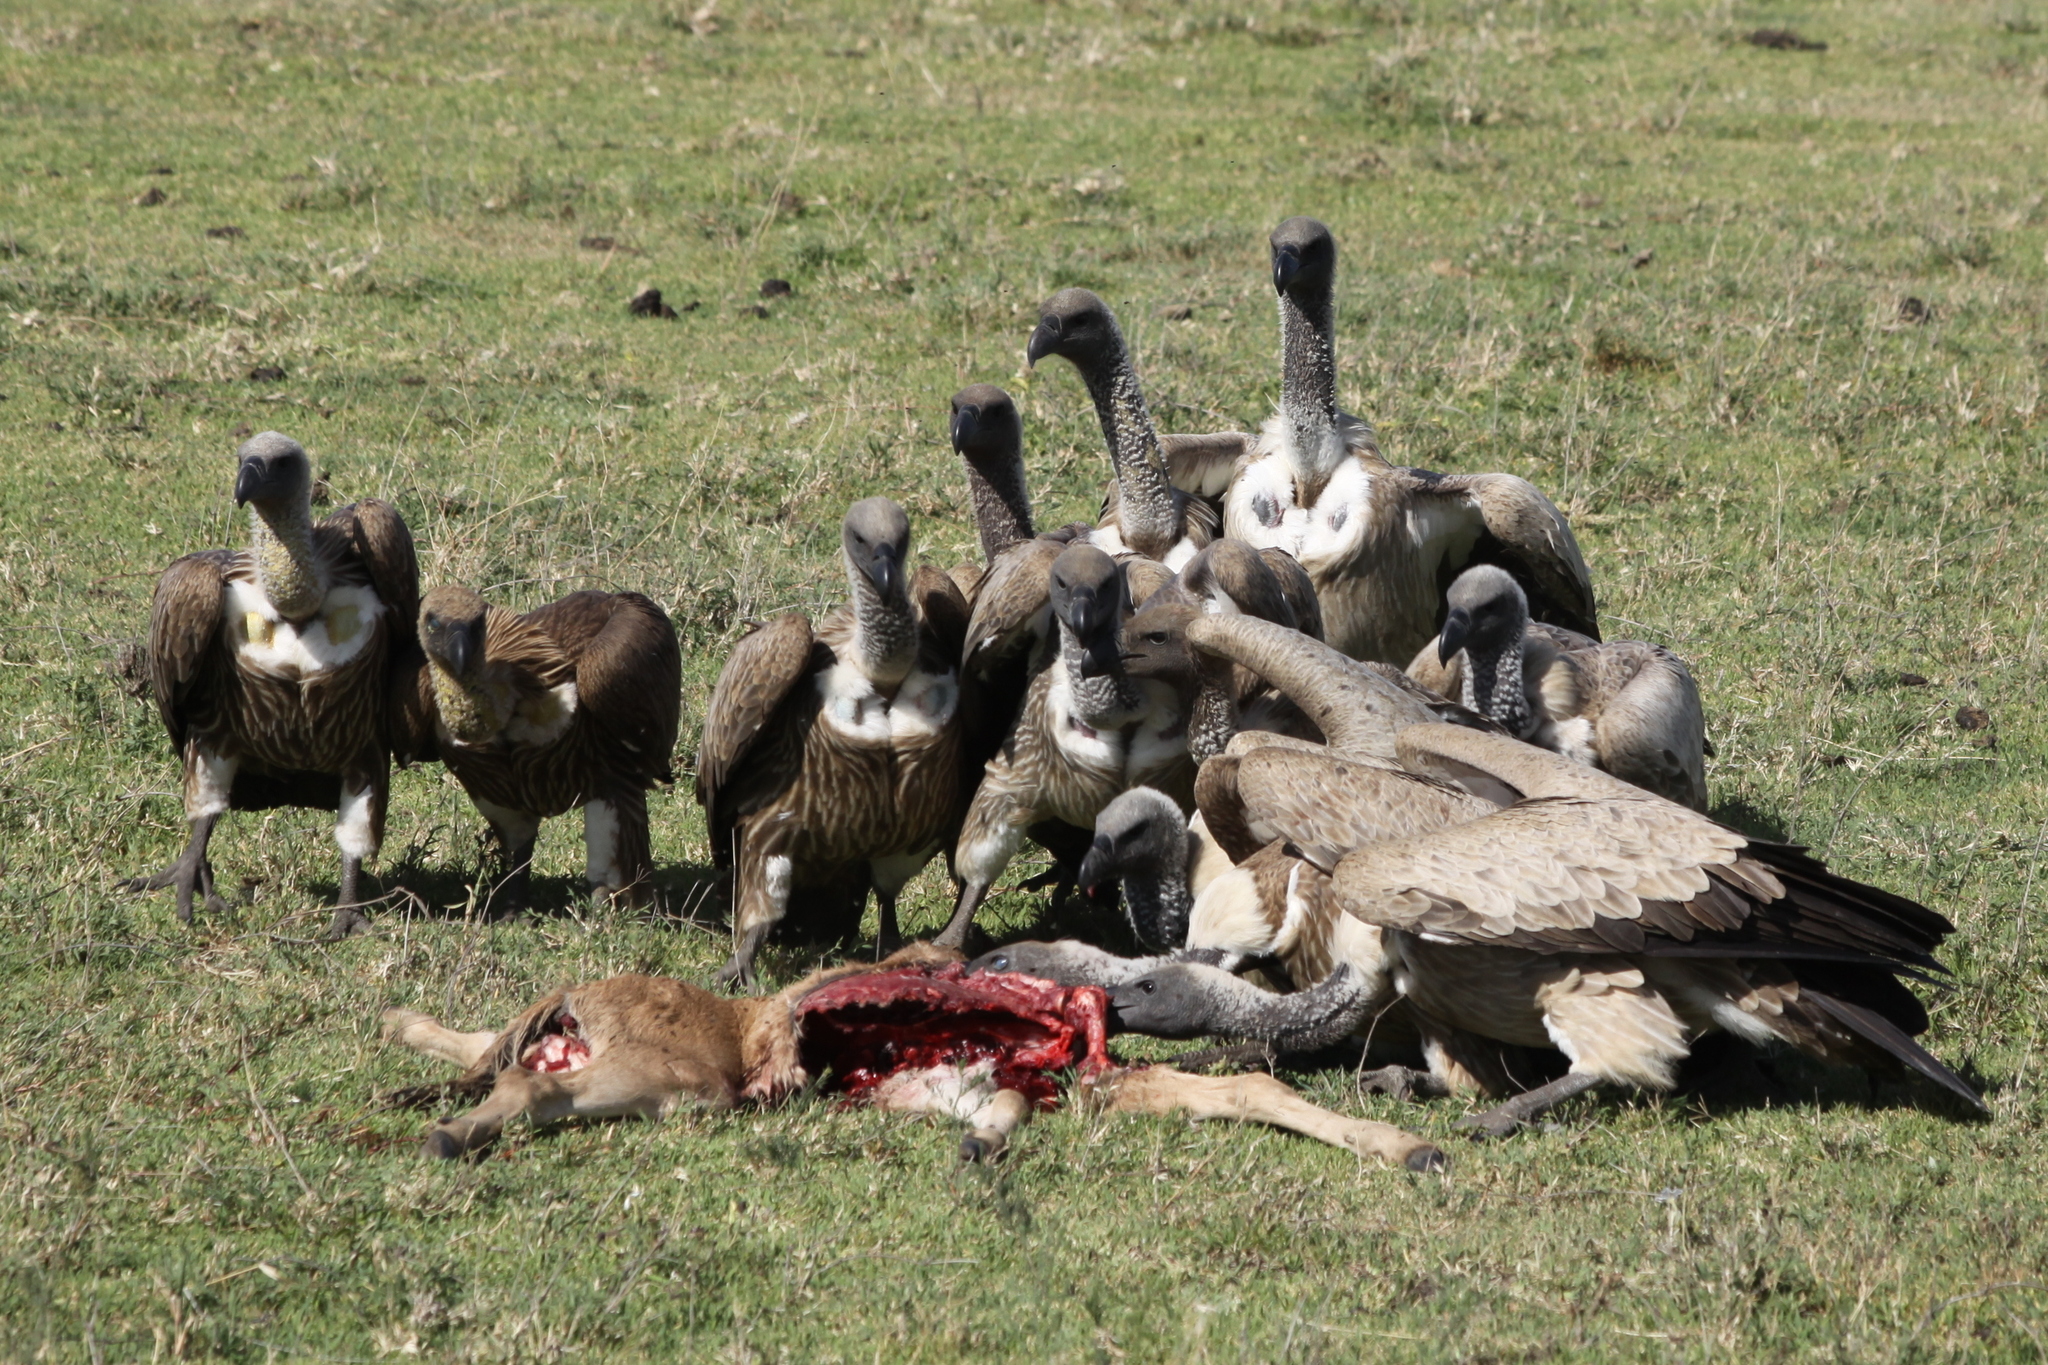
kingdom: Animalia
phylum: Chordata
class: Aves
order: Accipitriformes
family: Accipitridae
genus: Gyps
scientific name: Gyps africanus
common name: White-backed vulture
